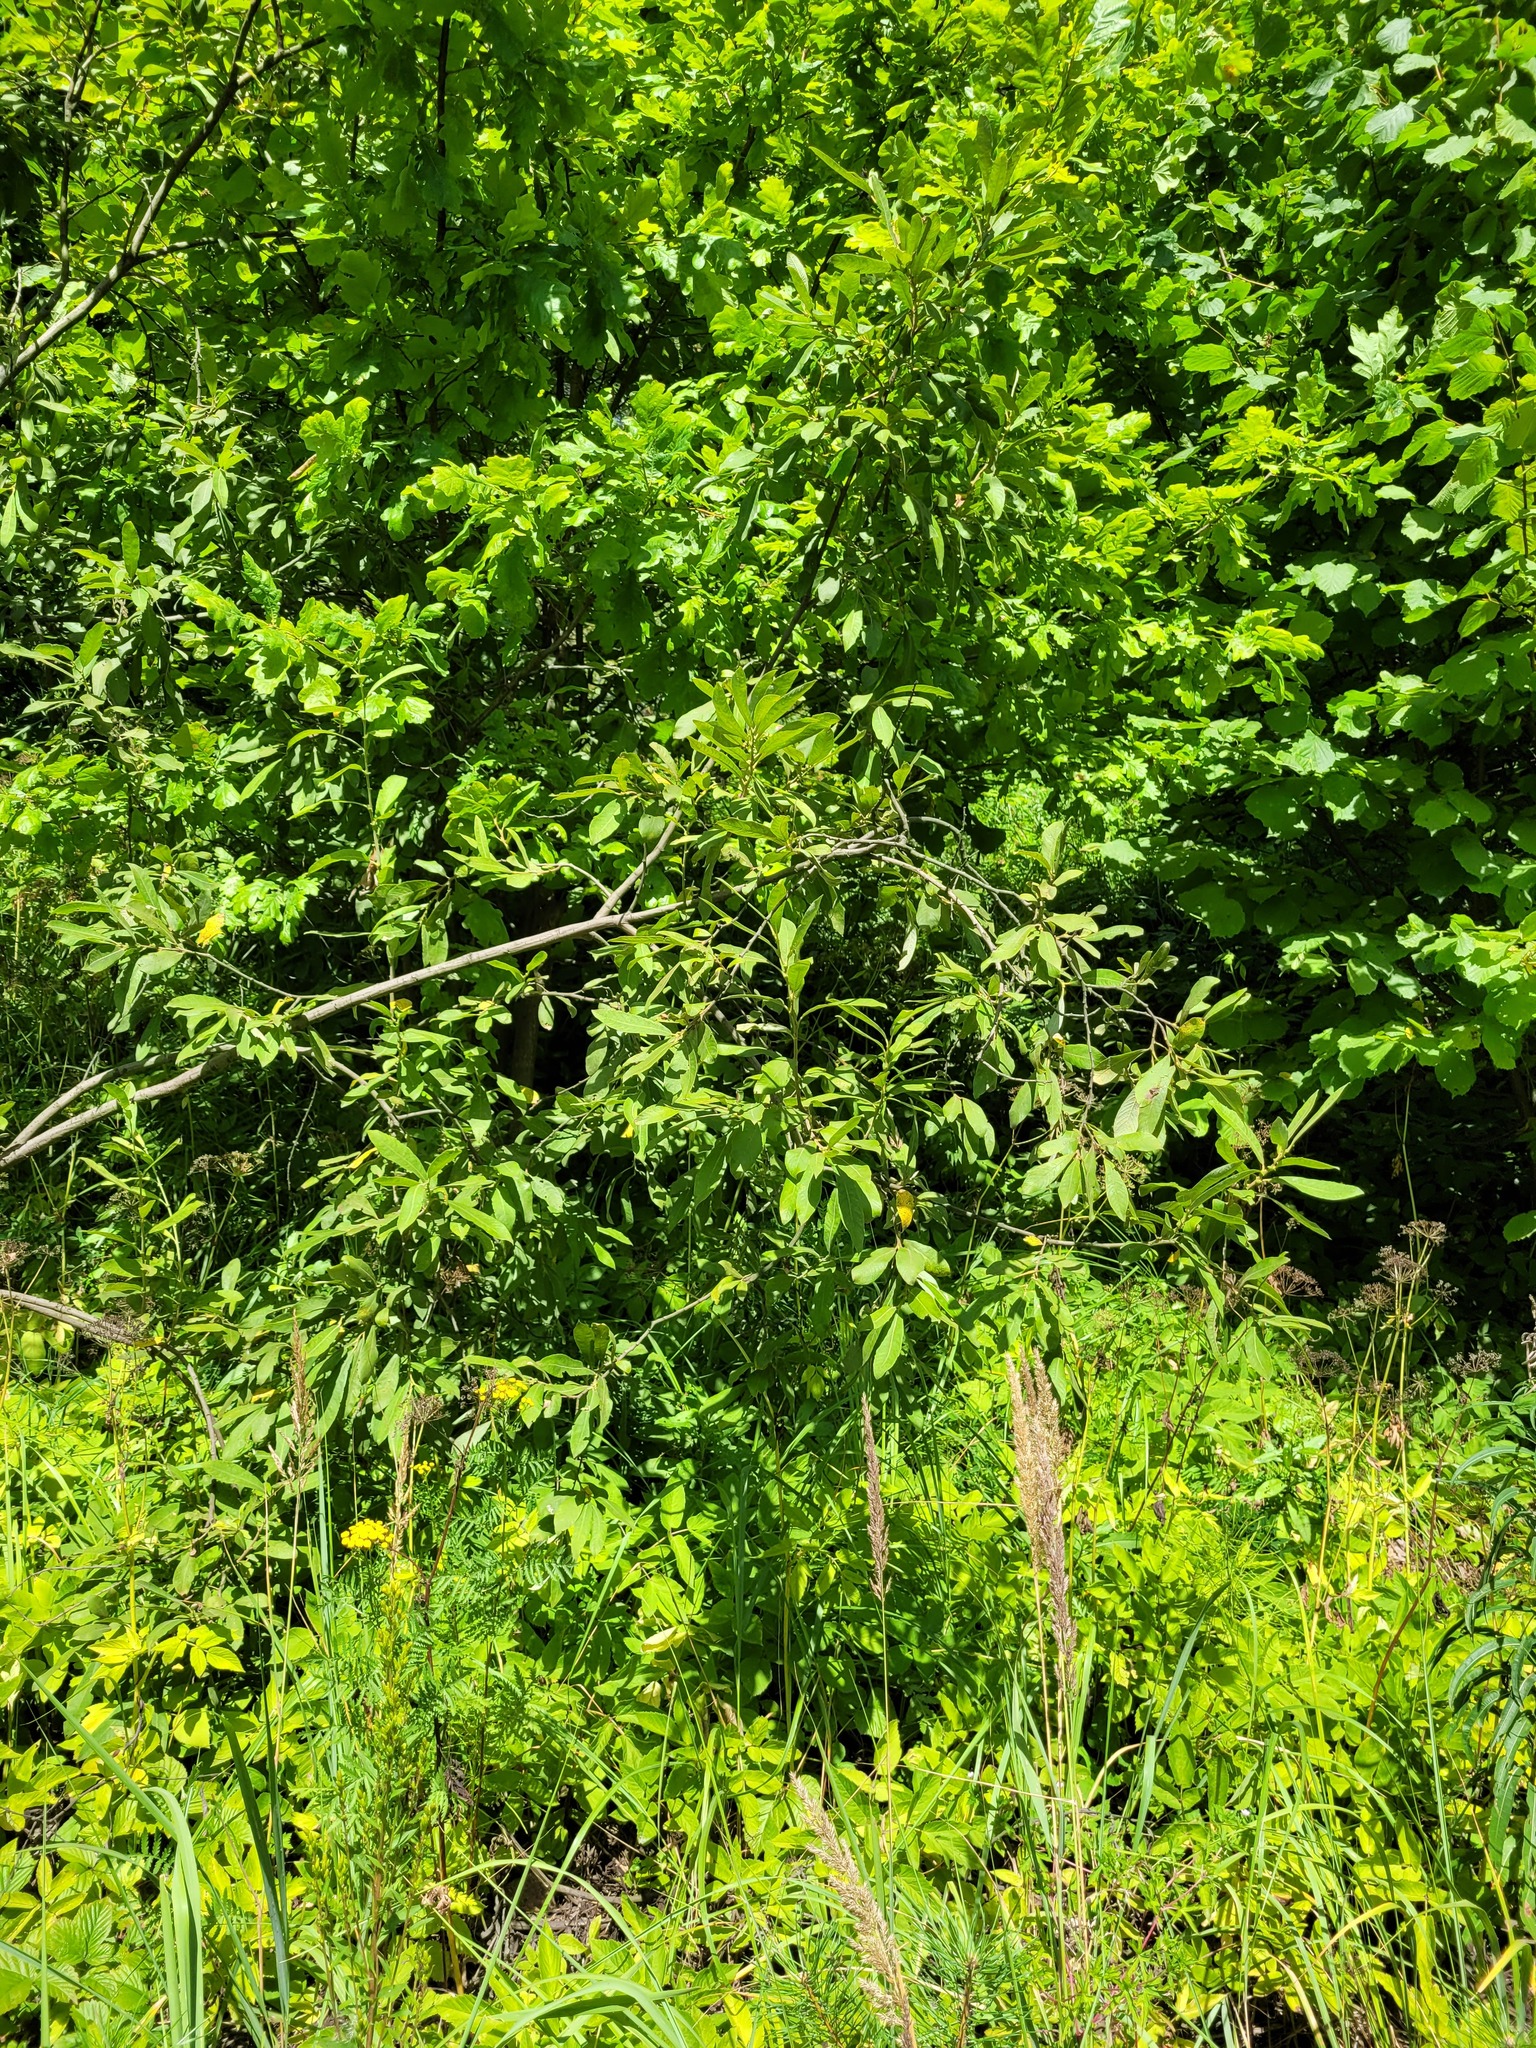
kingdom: Plantae
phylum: Tracheophyta
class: Magnoliopsida
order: Malpighiales
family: Salicaceae
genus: Salix
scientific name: Salix cinerea
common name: Common sallow
